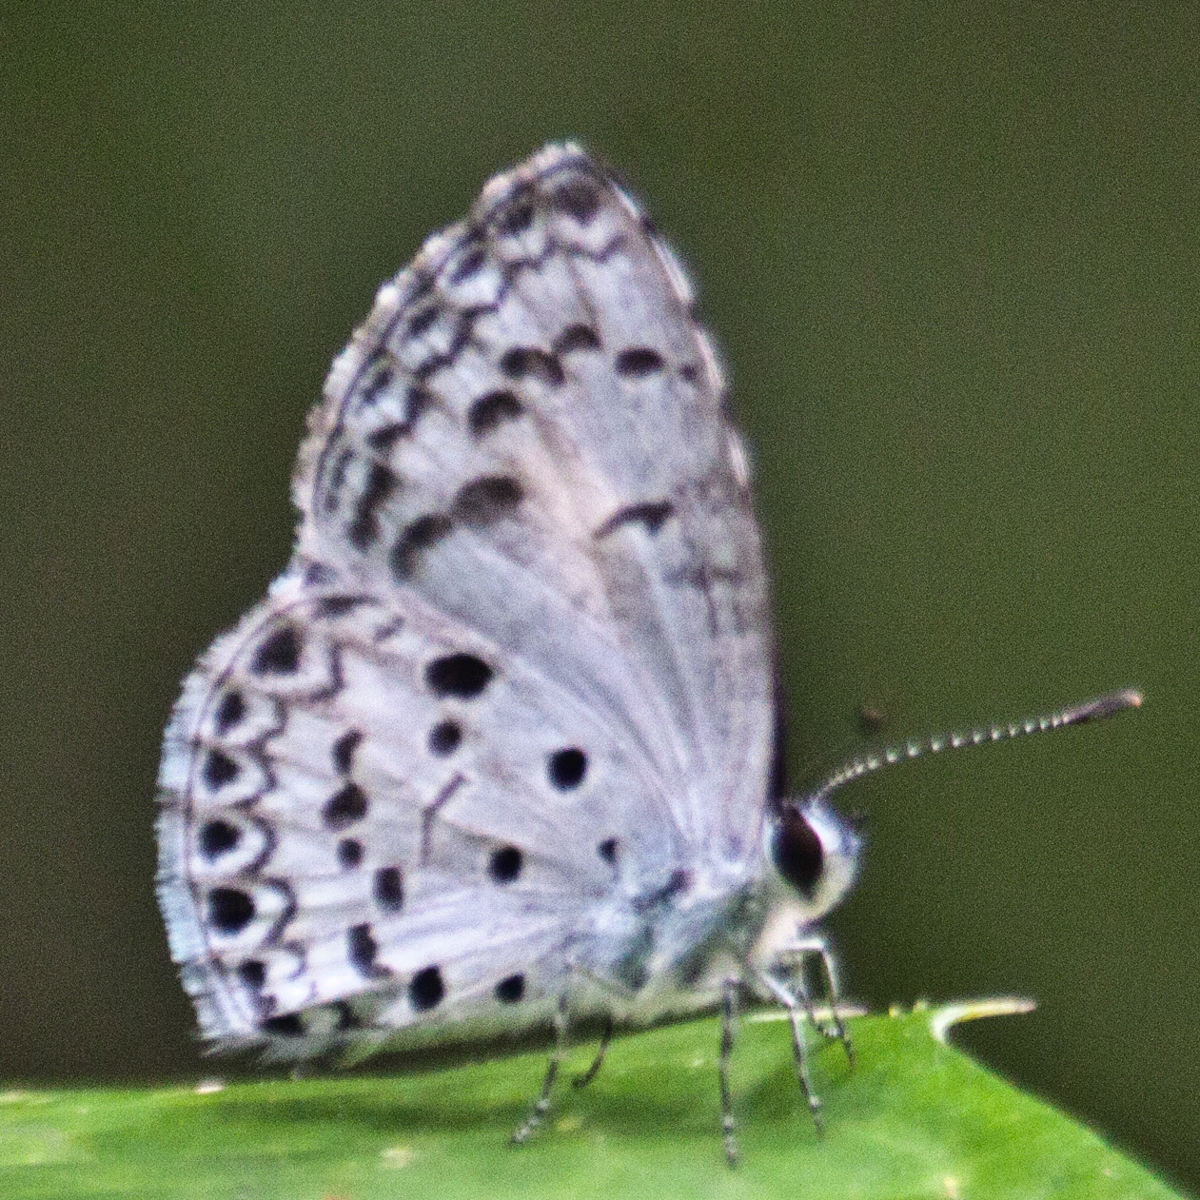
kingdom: Animalia
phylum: Arthropoda
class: Insecta
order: Lepidoptera
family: Lycaenidae
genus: Acytolepis
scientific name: Acytolepis puspa
